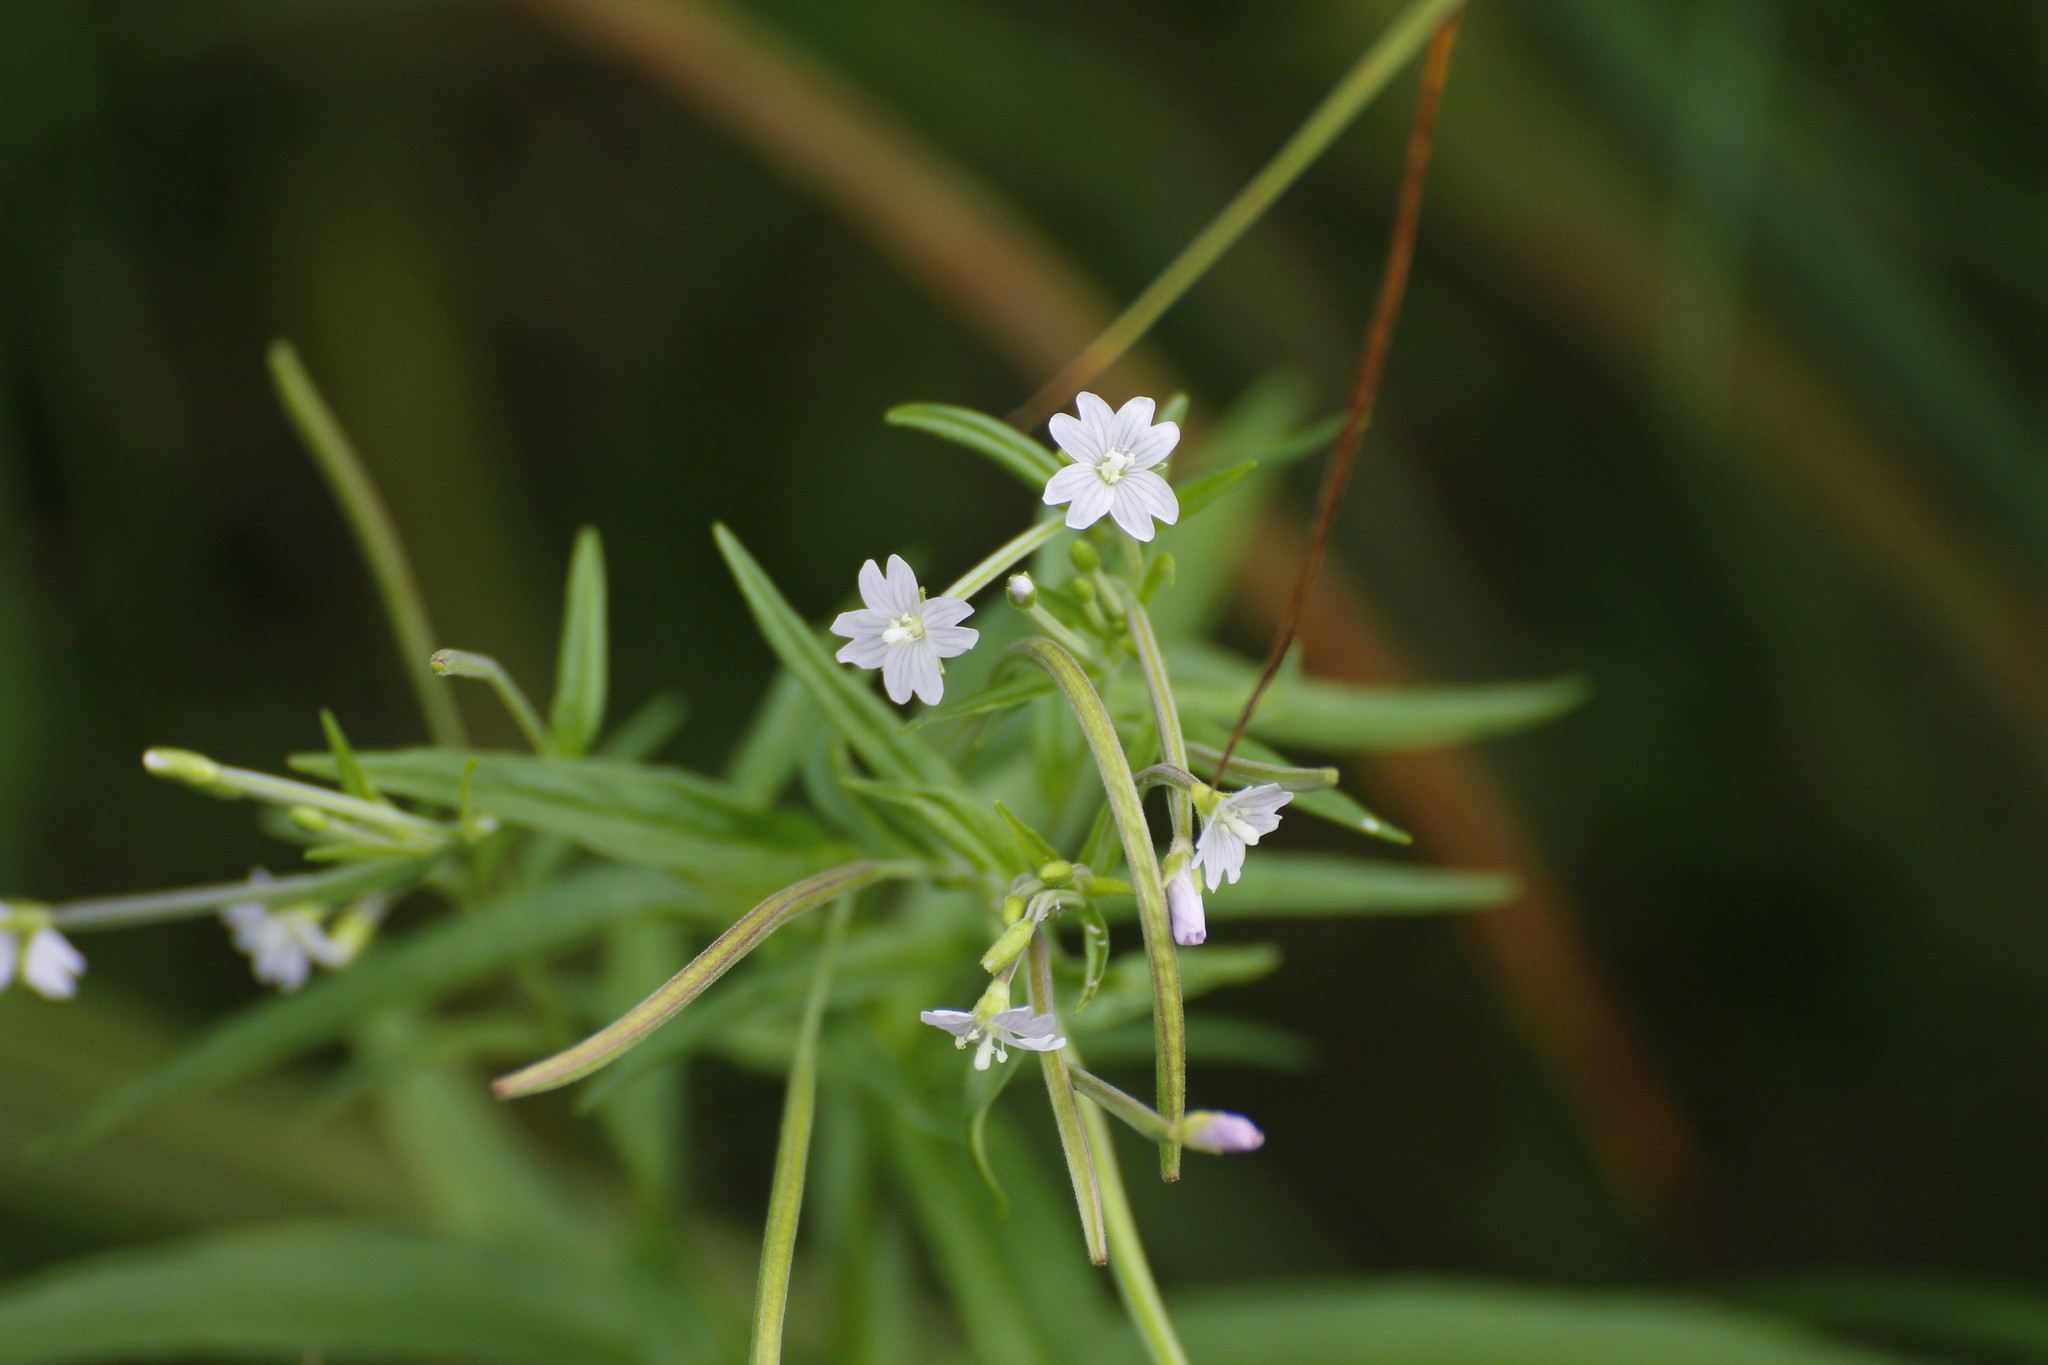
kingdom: Plantae
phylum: Tracheophyta
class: Magnoliopsida
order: Myrtales
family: Onagraceae
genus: Epilobium
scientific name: Epilobium palustre
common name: Marsh willowherb
